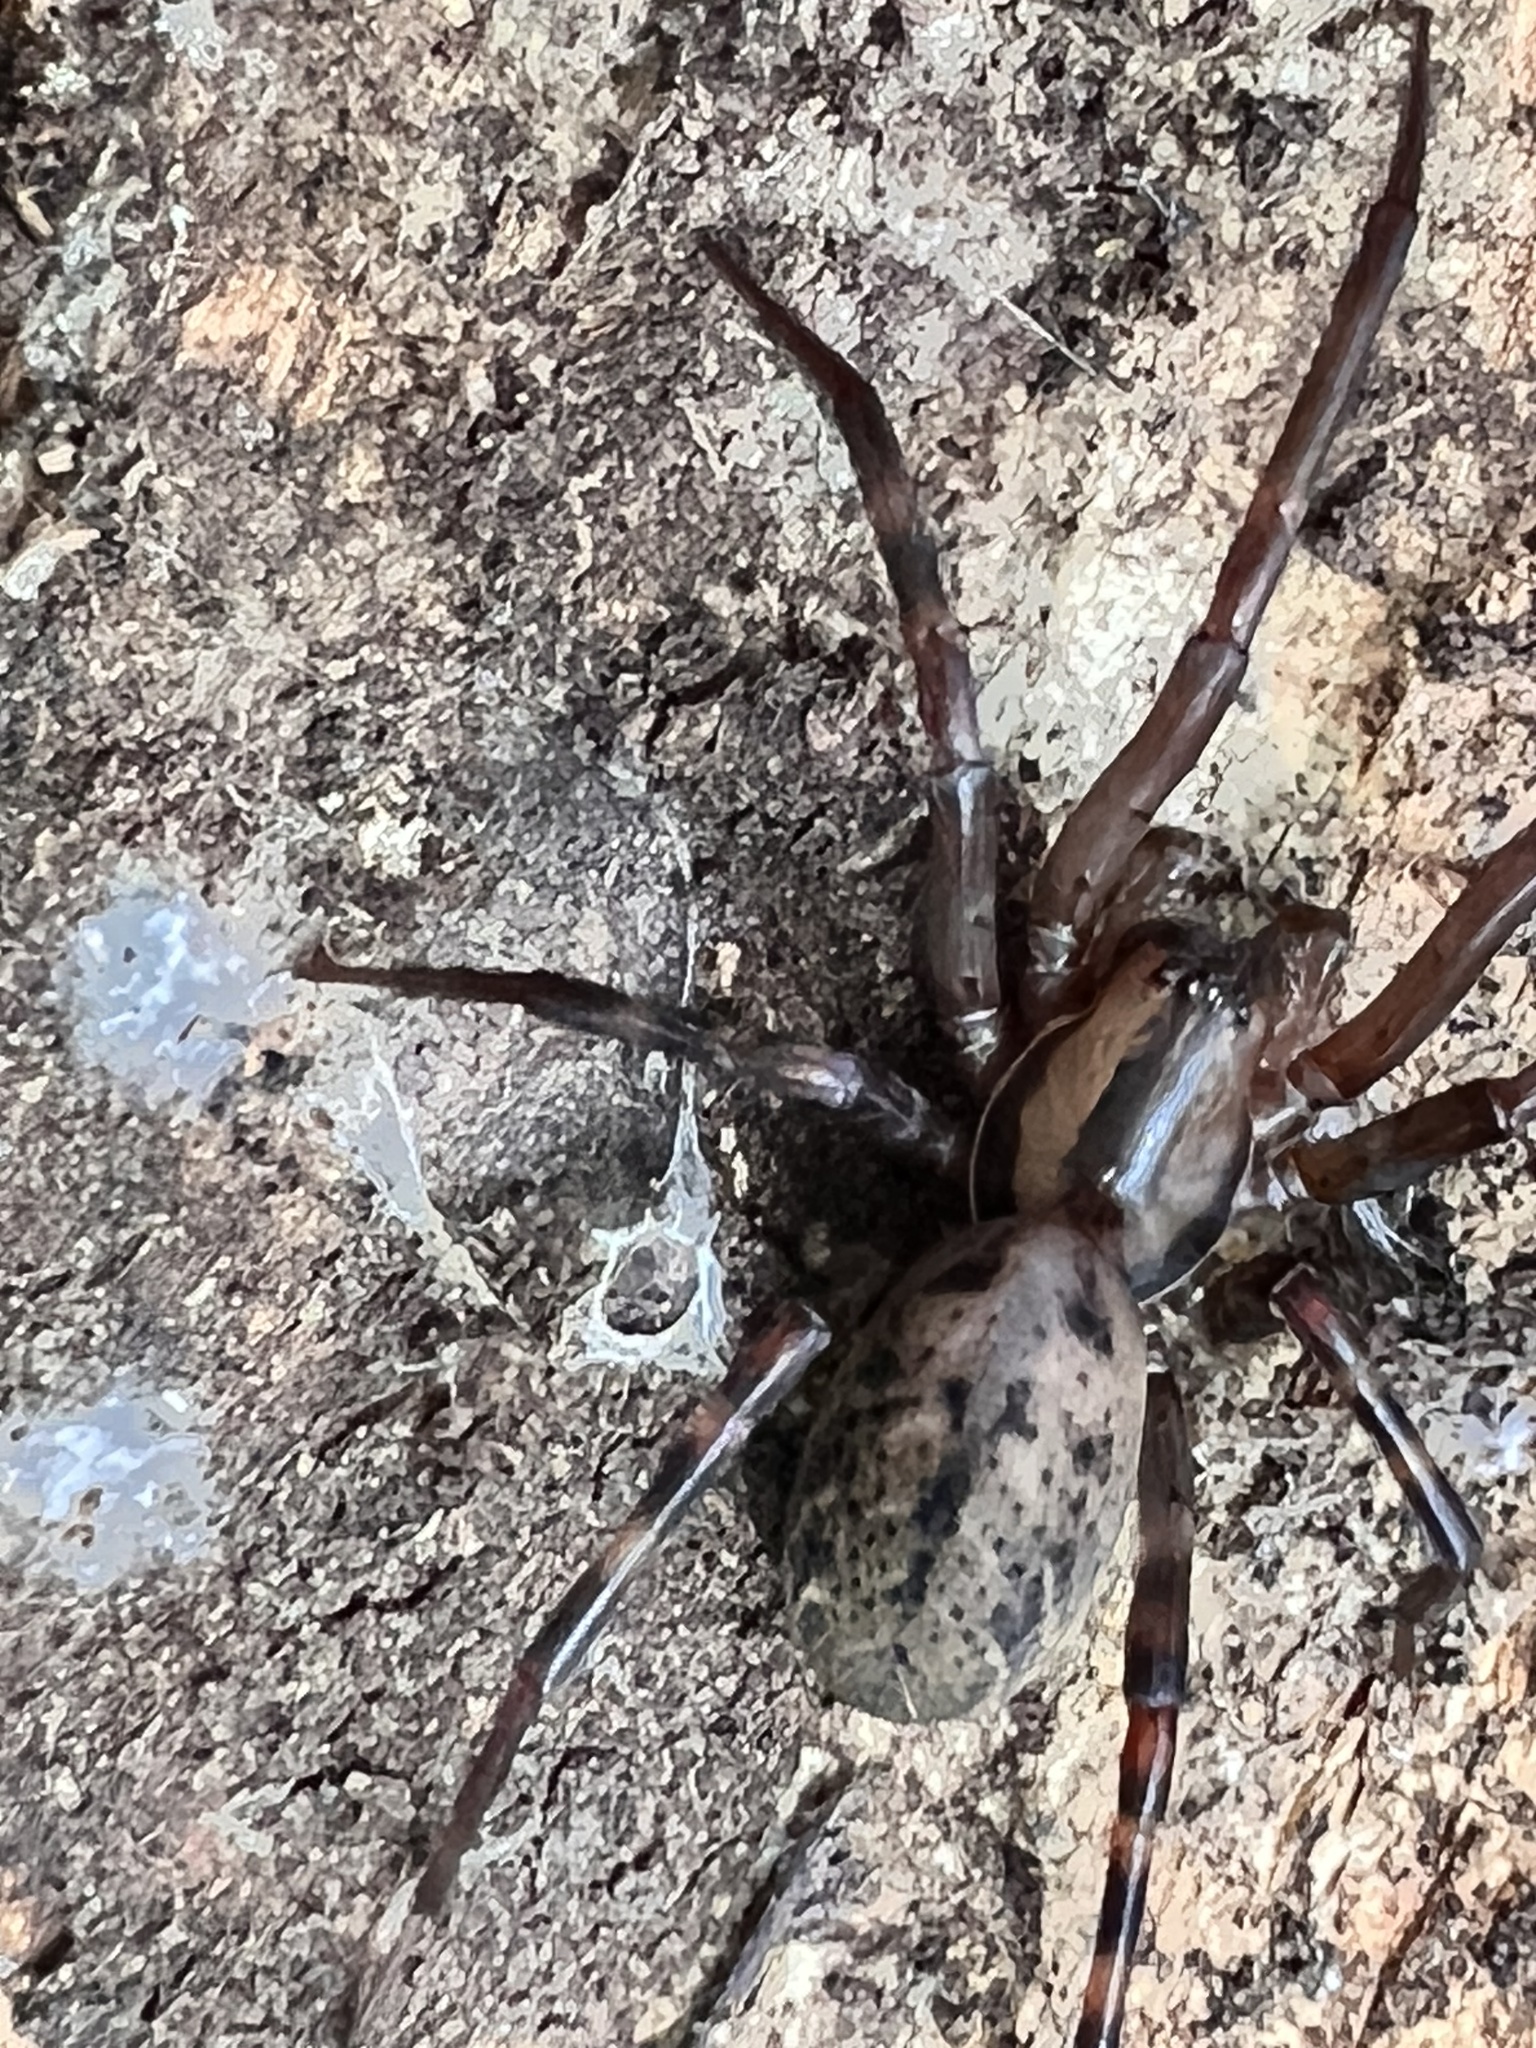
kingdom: Animalia
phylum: Arthropoda
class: Arachnida
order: Araneae
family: Desidae
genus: Cambridgea
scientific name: Cambridgea quadromaculata
